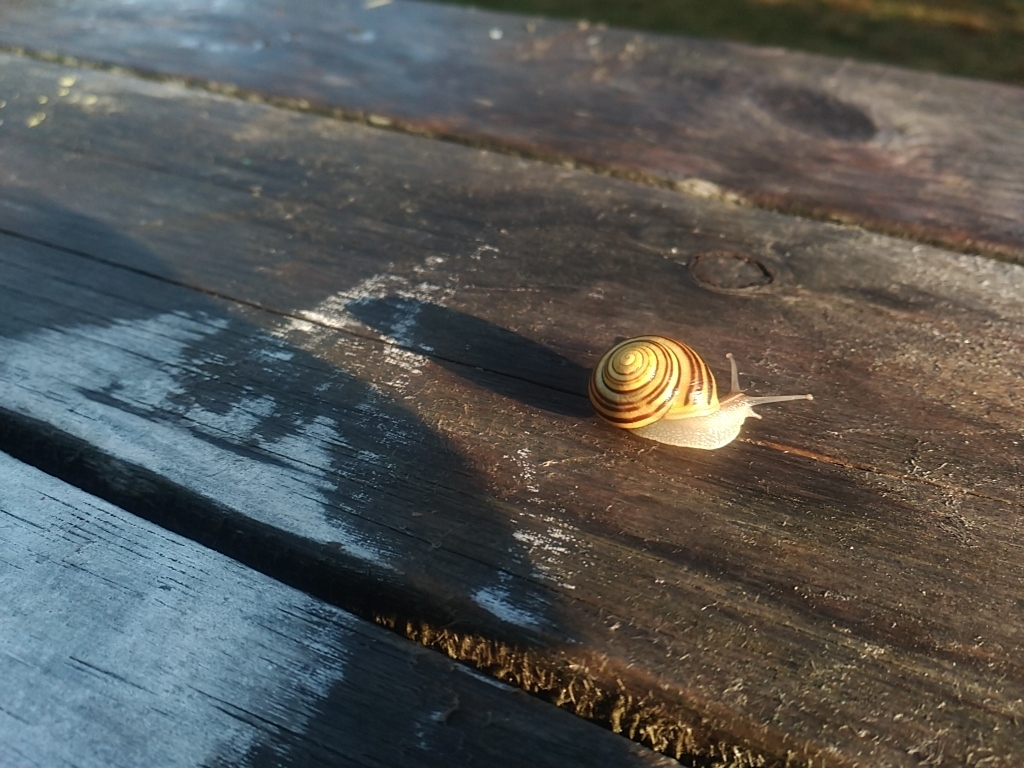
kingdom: Animalia
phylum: Mollusca
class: Gastropoda
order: Stylommatophora
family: Helicidae
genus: Cepaea
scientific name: Cepaea hortensis
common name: White-lip gardensnail
